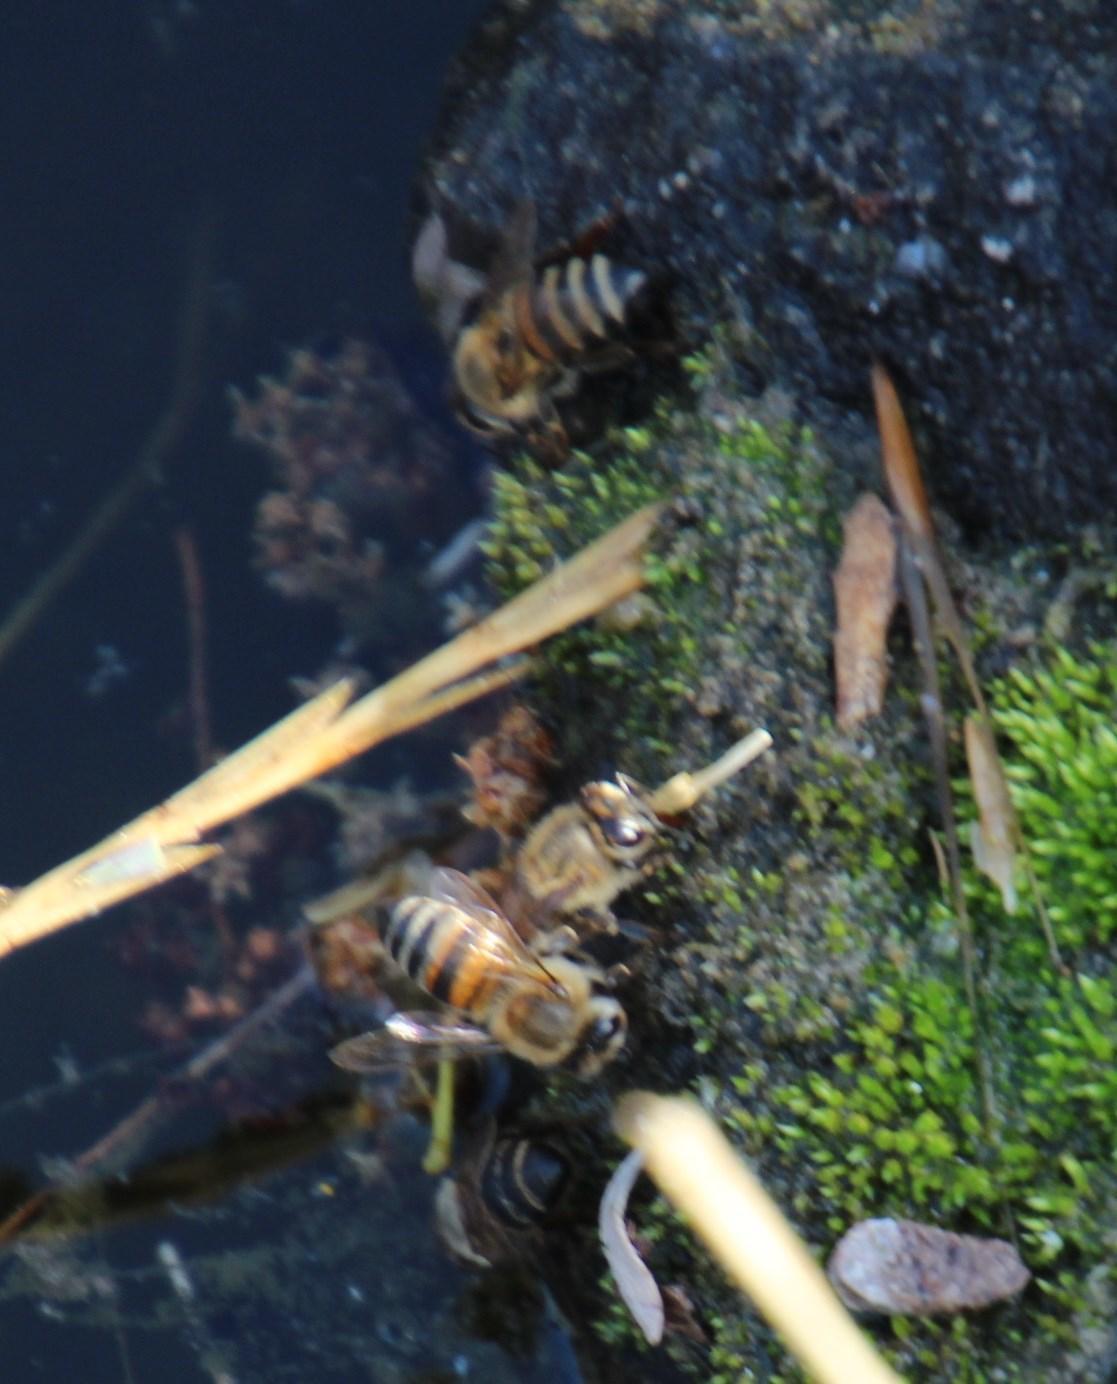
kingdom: Animalia
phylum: Arthropoda
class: Insecta
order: Hymenoptera
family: Apidae
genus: Apis
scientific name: Apis mellifera
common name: Honey bee
